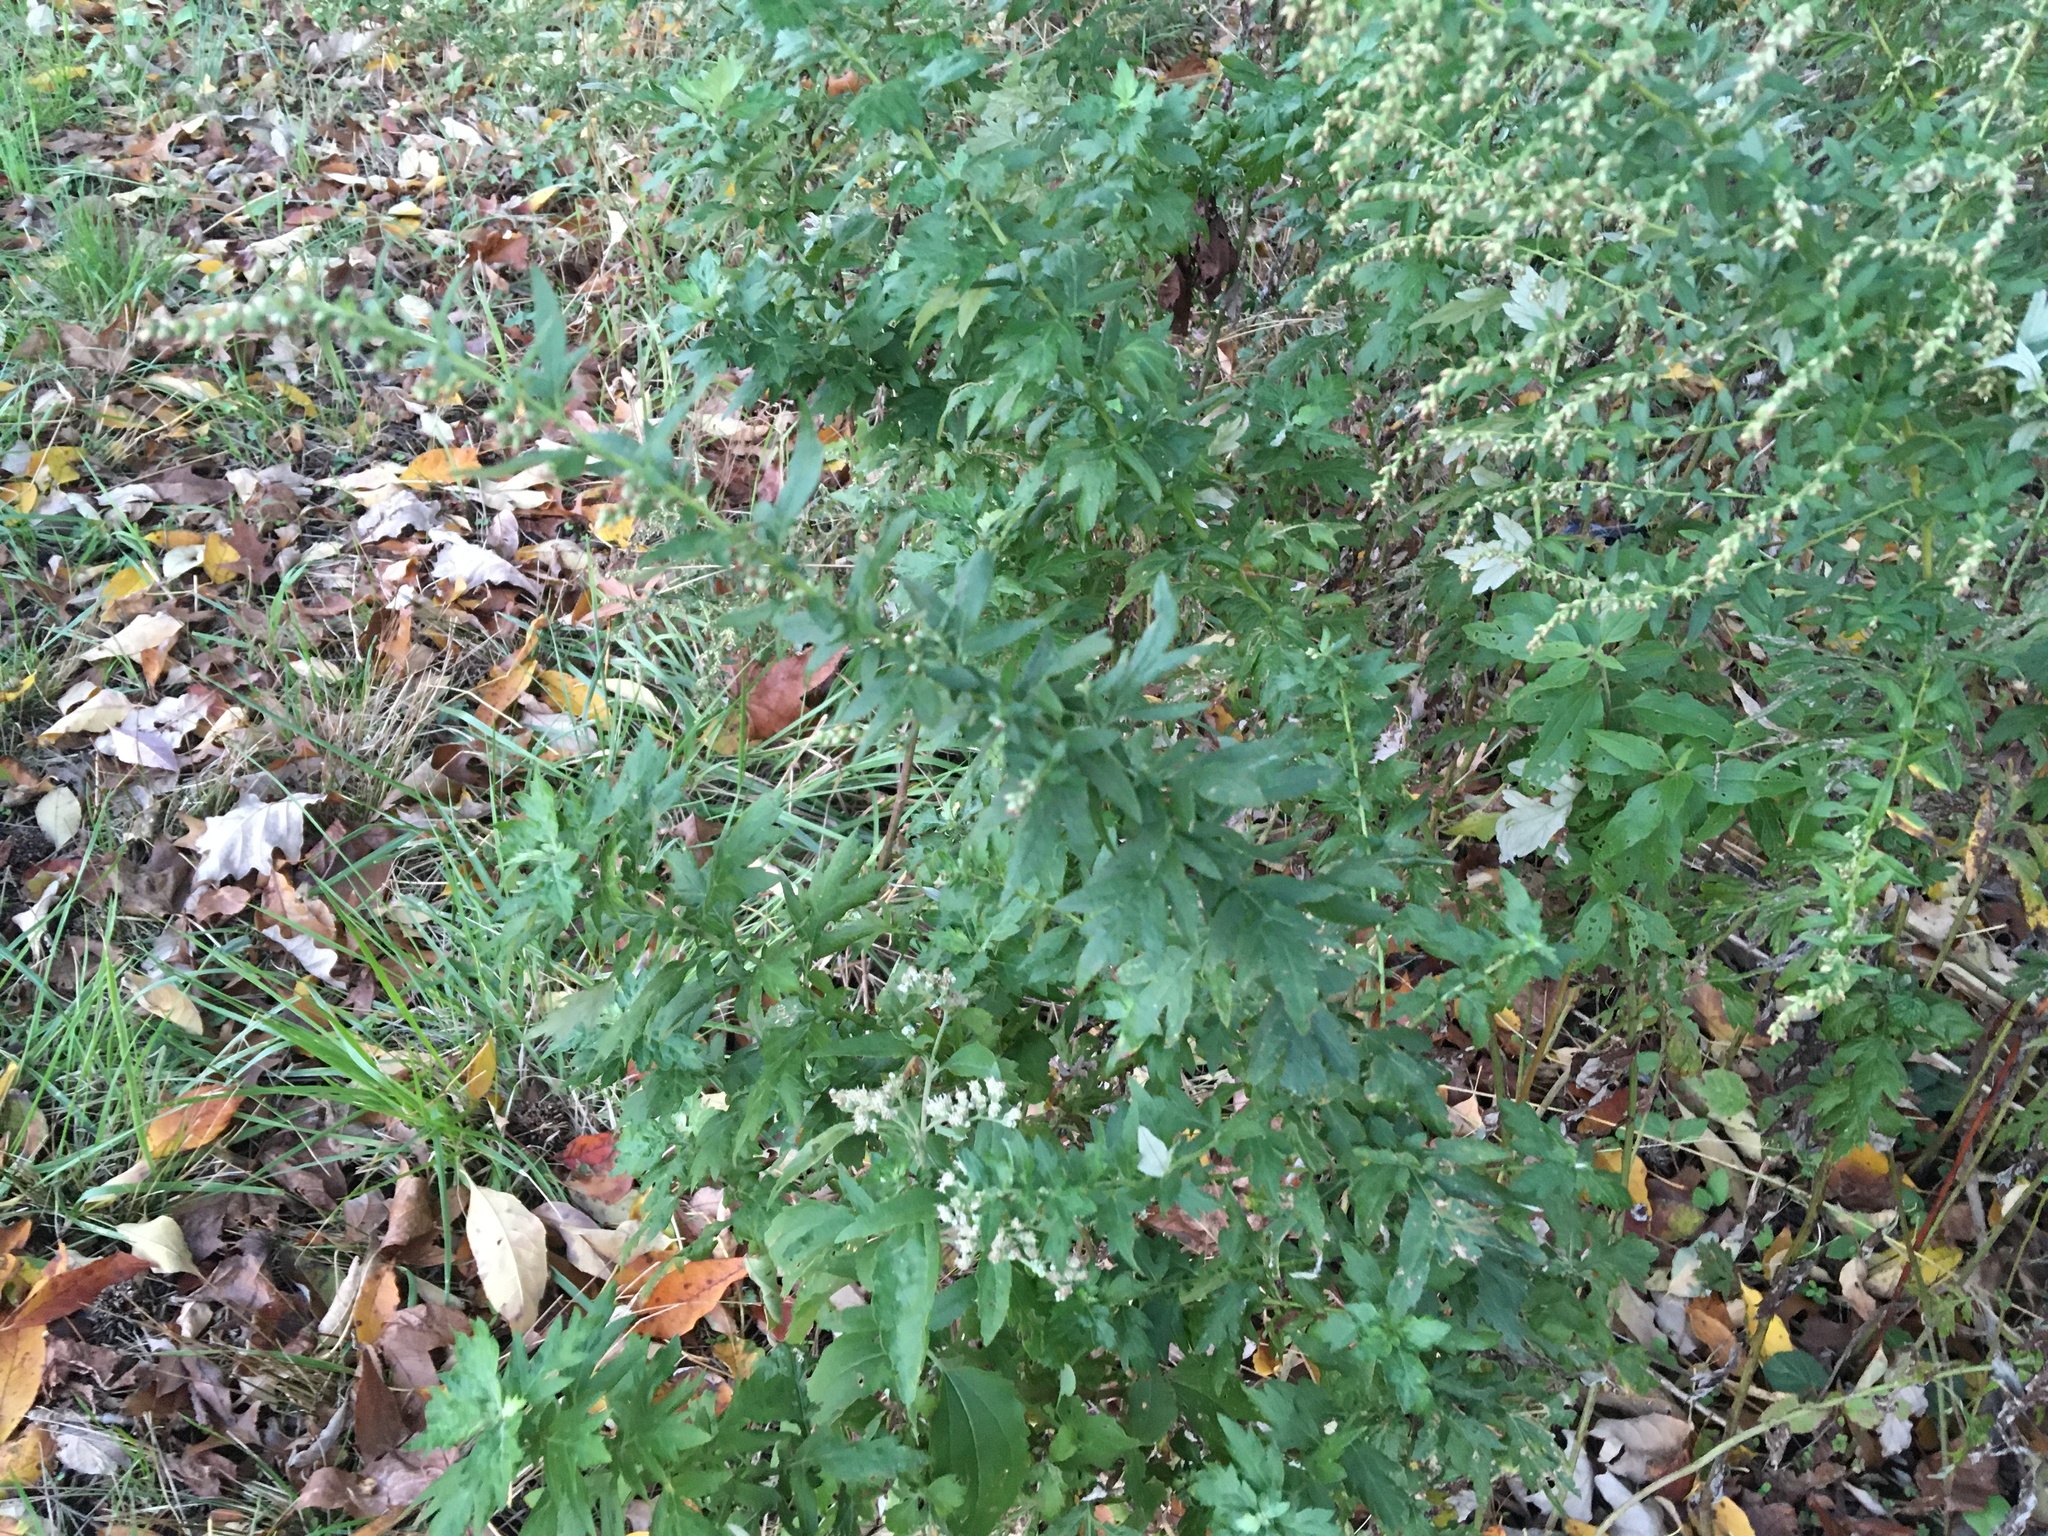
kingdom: Plantae
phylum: Tracheophyta
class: Magnoliopsida
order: Asterales
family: Asteraceae
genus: Artemisia
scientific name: Artemisia vulgaris
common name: Mugwort
